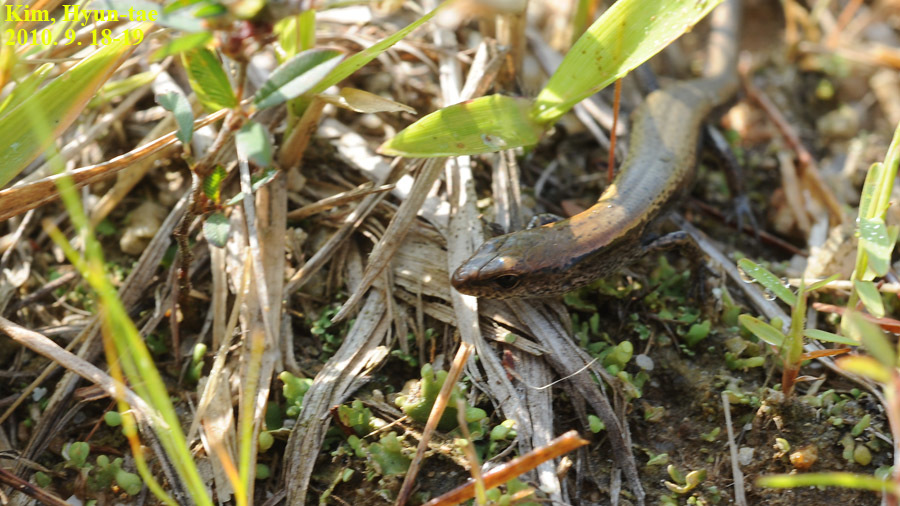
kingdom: Animalia
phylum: Chordata
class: Squamata
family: Scincidae
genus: Scincella
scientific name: Scincella vandenburghi
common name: Tsushima smooth skink
